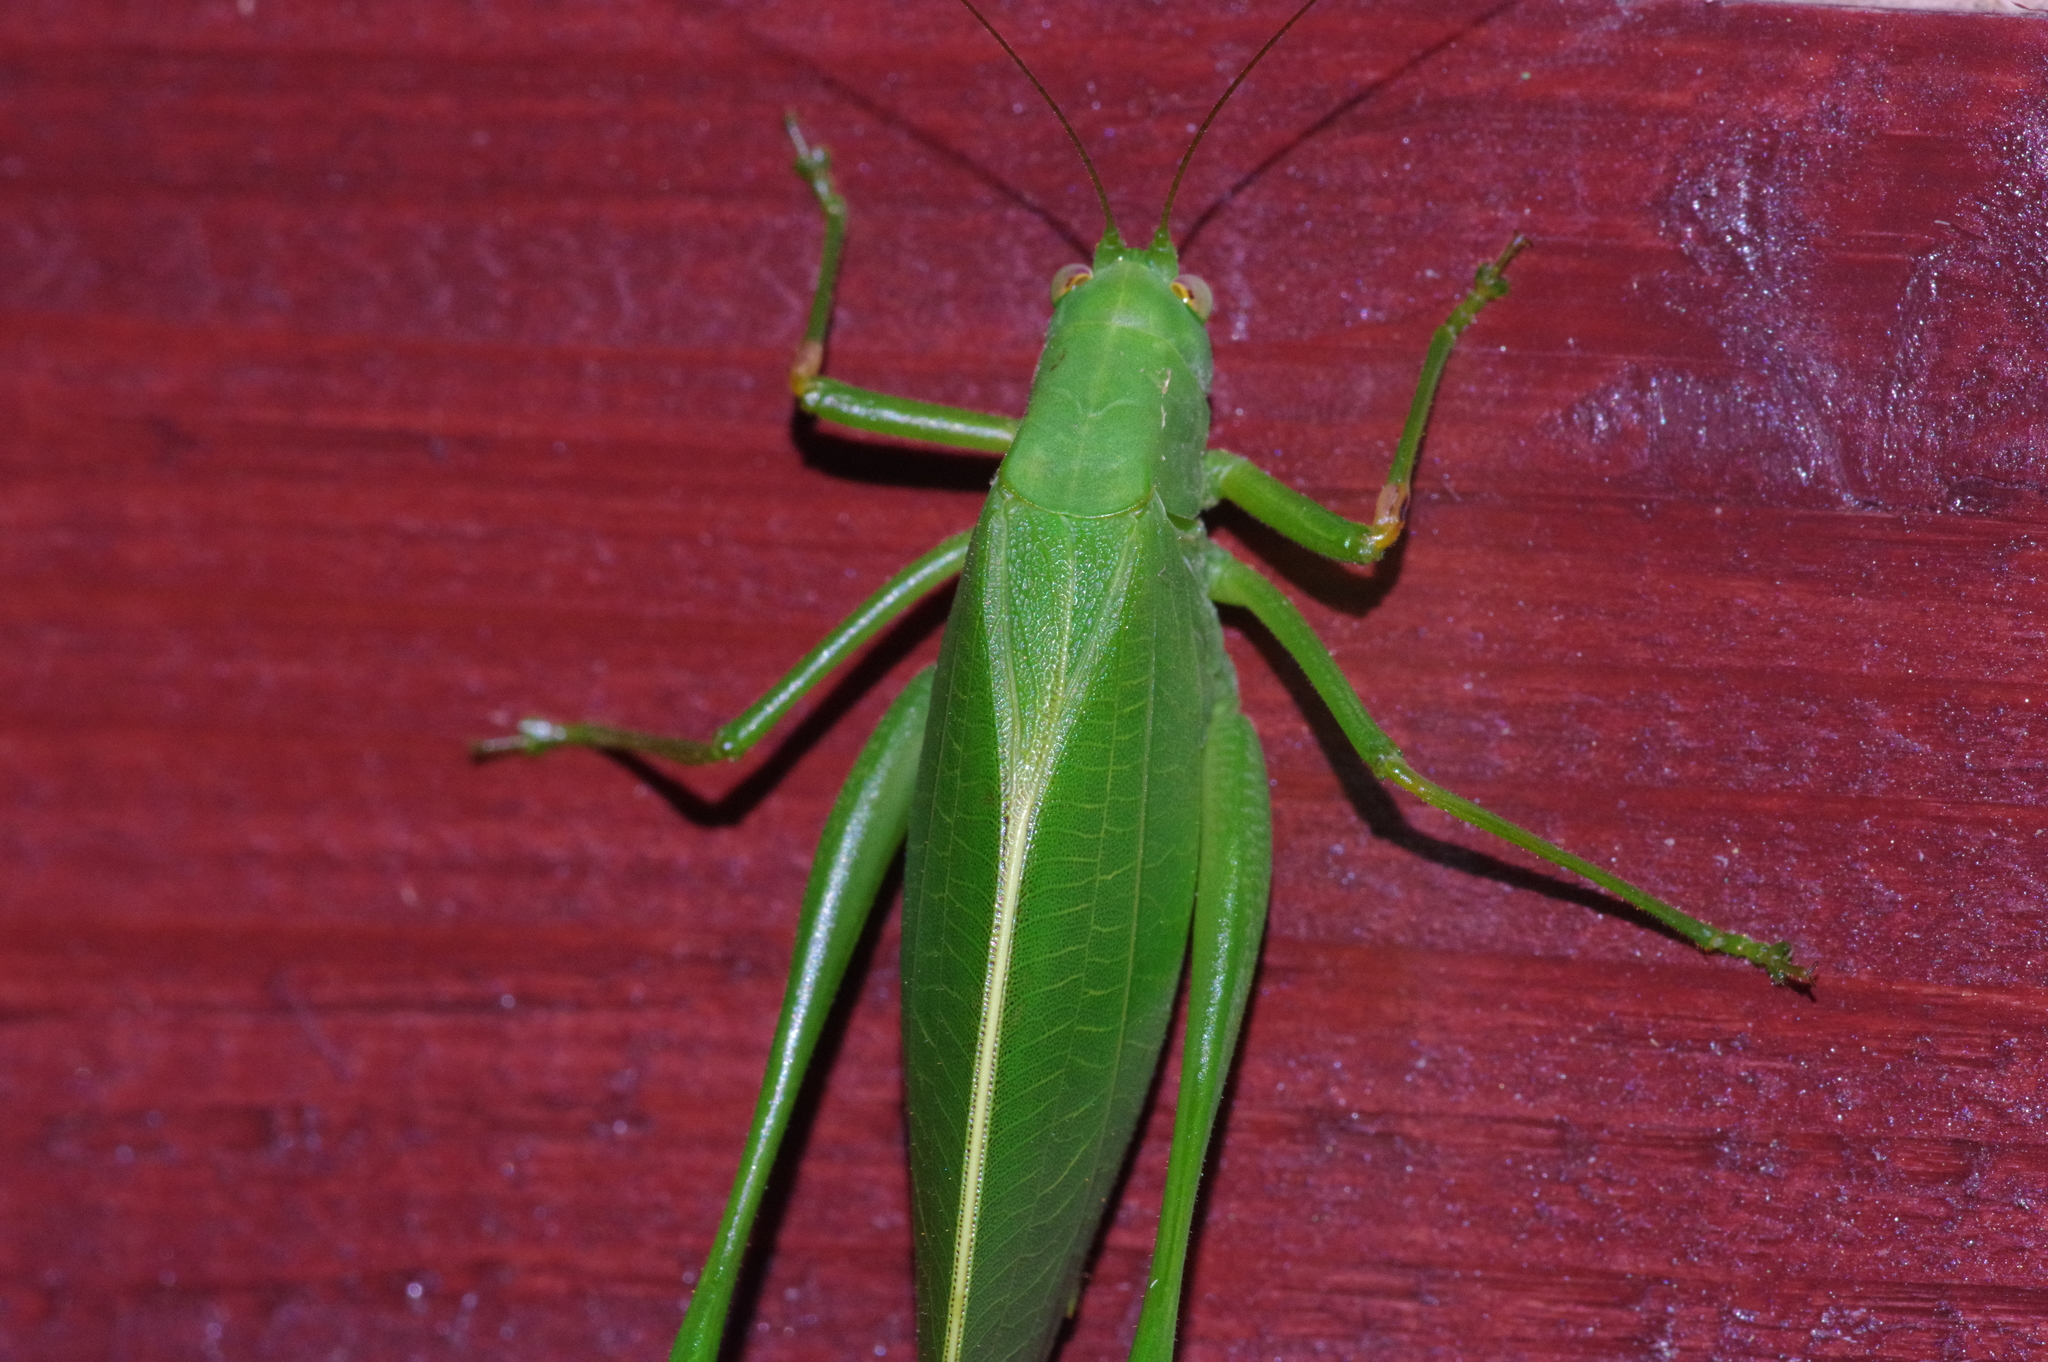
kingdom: Animalia
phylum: Arthropoda
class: Insecta
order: Orthoptera
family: Tettigoniidae
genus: Phaulula
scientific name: Phaulula daitoensis
